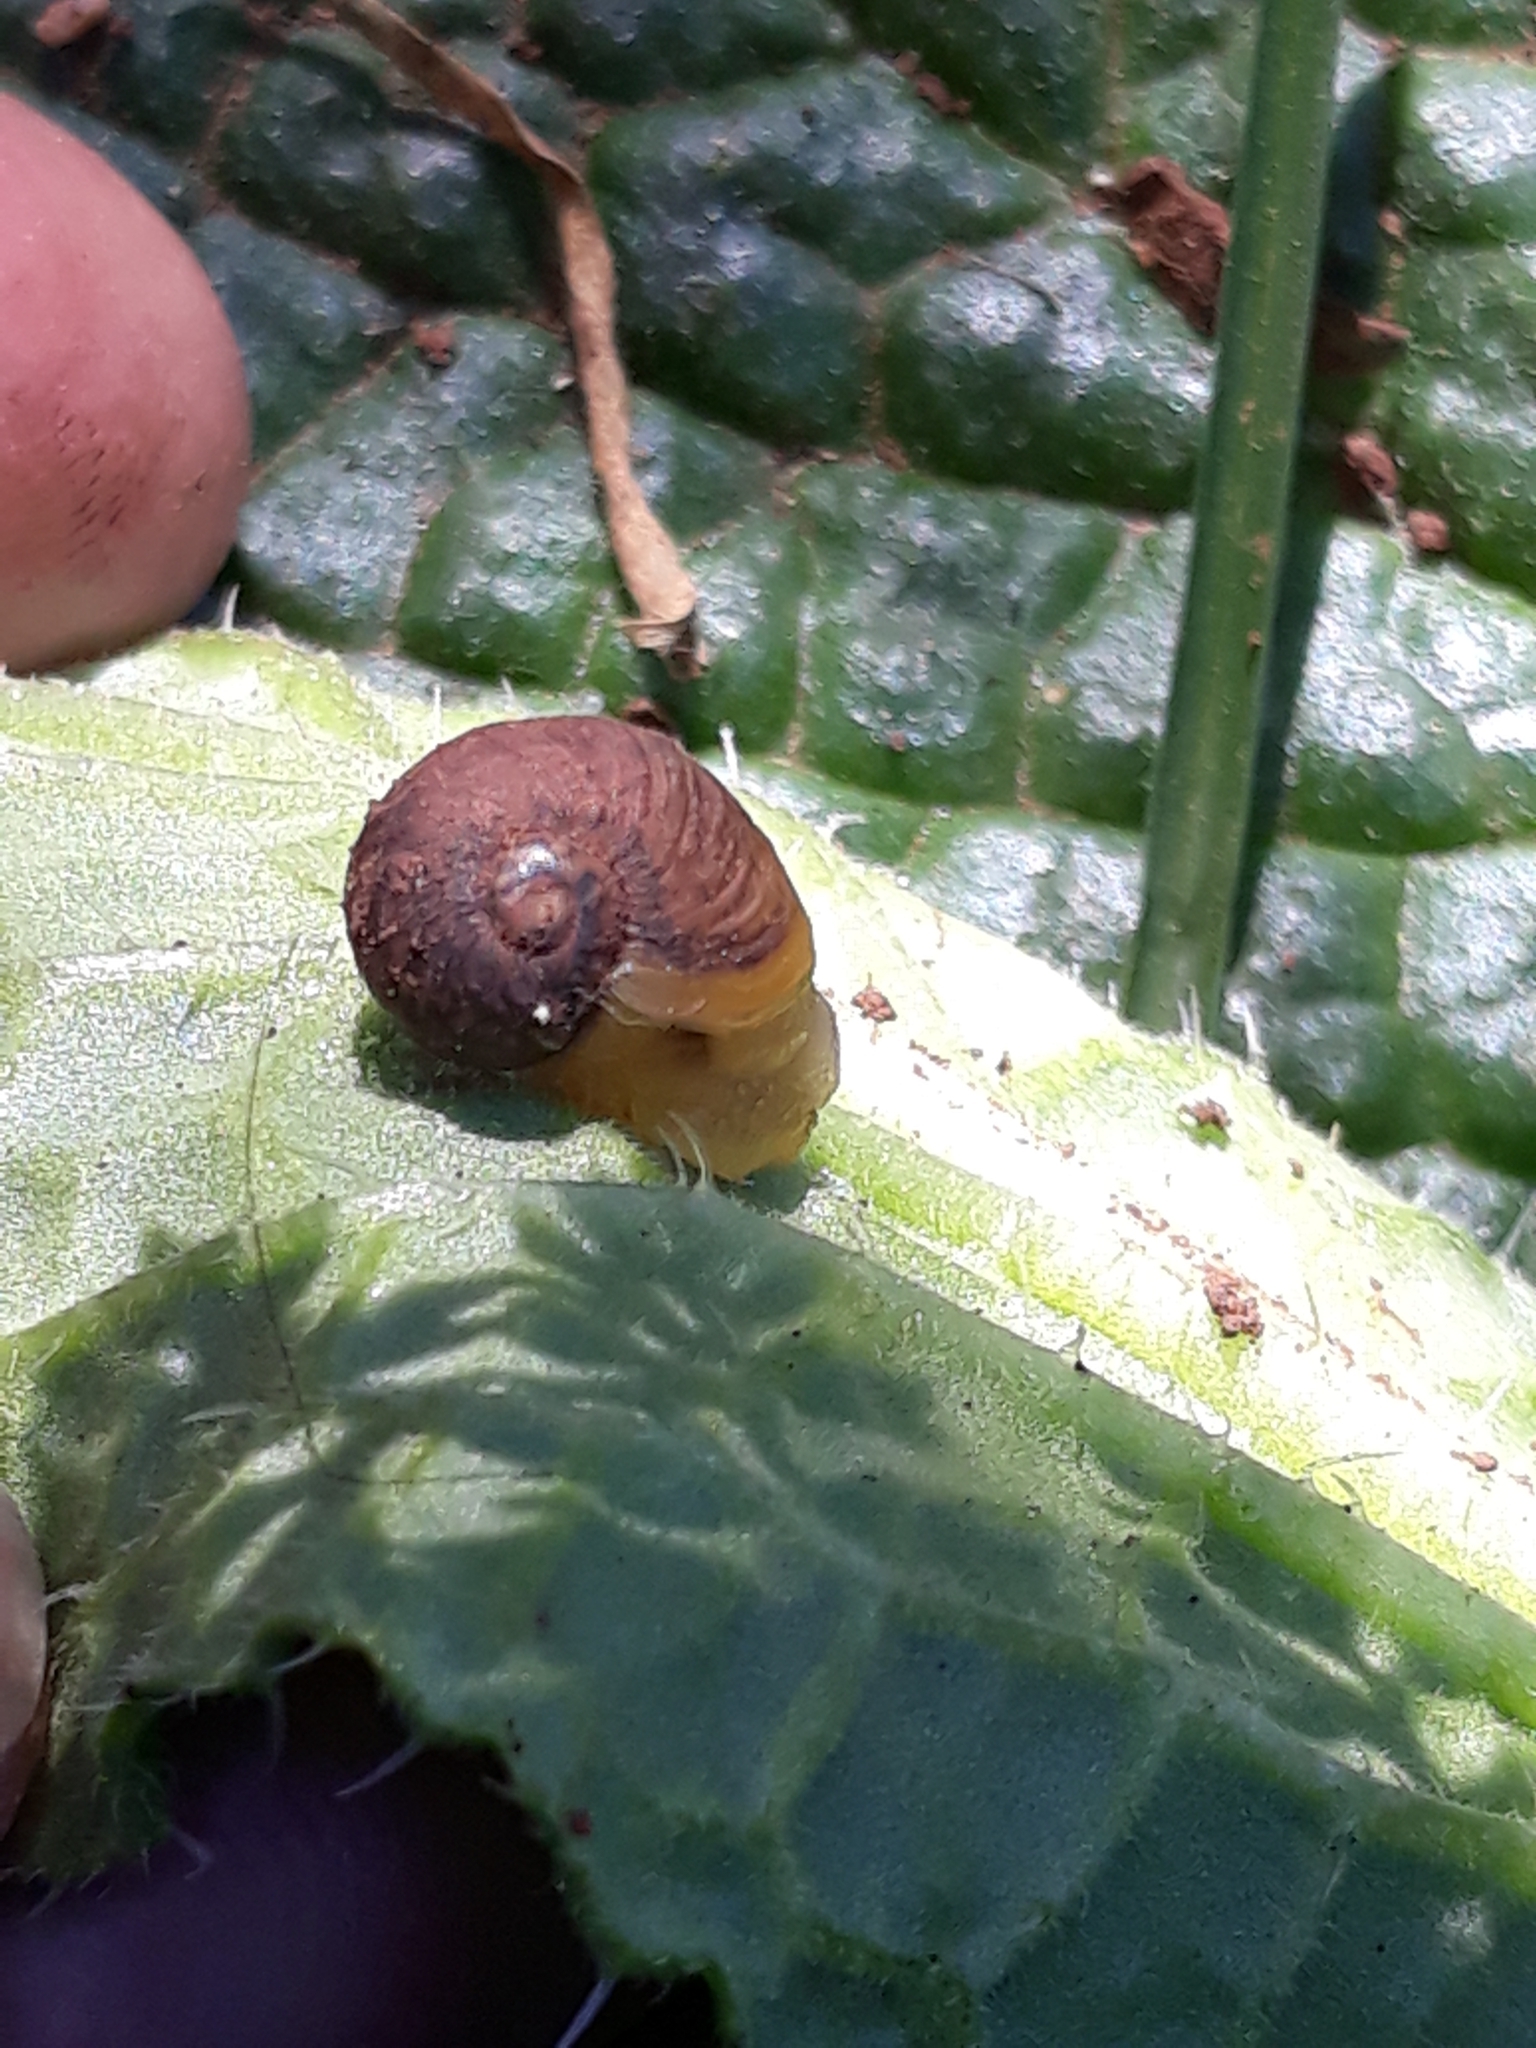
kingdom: Animalia
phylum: Mollusca
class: Gastropoda
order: Stylommatophora
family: Helicidae
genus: Cantareus
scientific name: Cantareus apertus
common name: Green gardensnail
